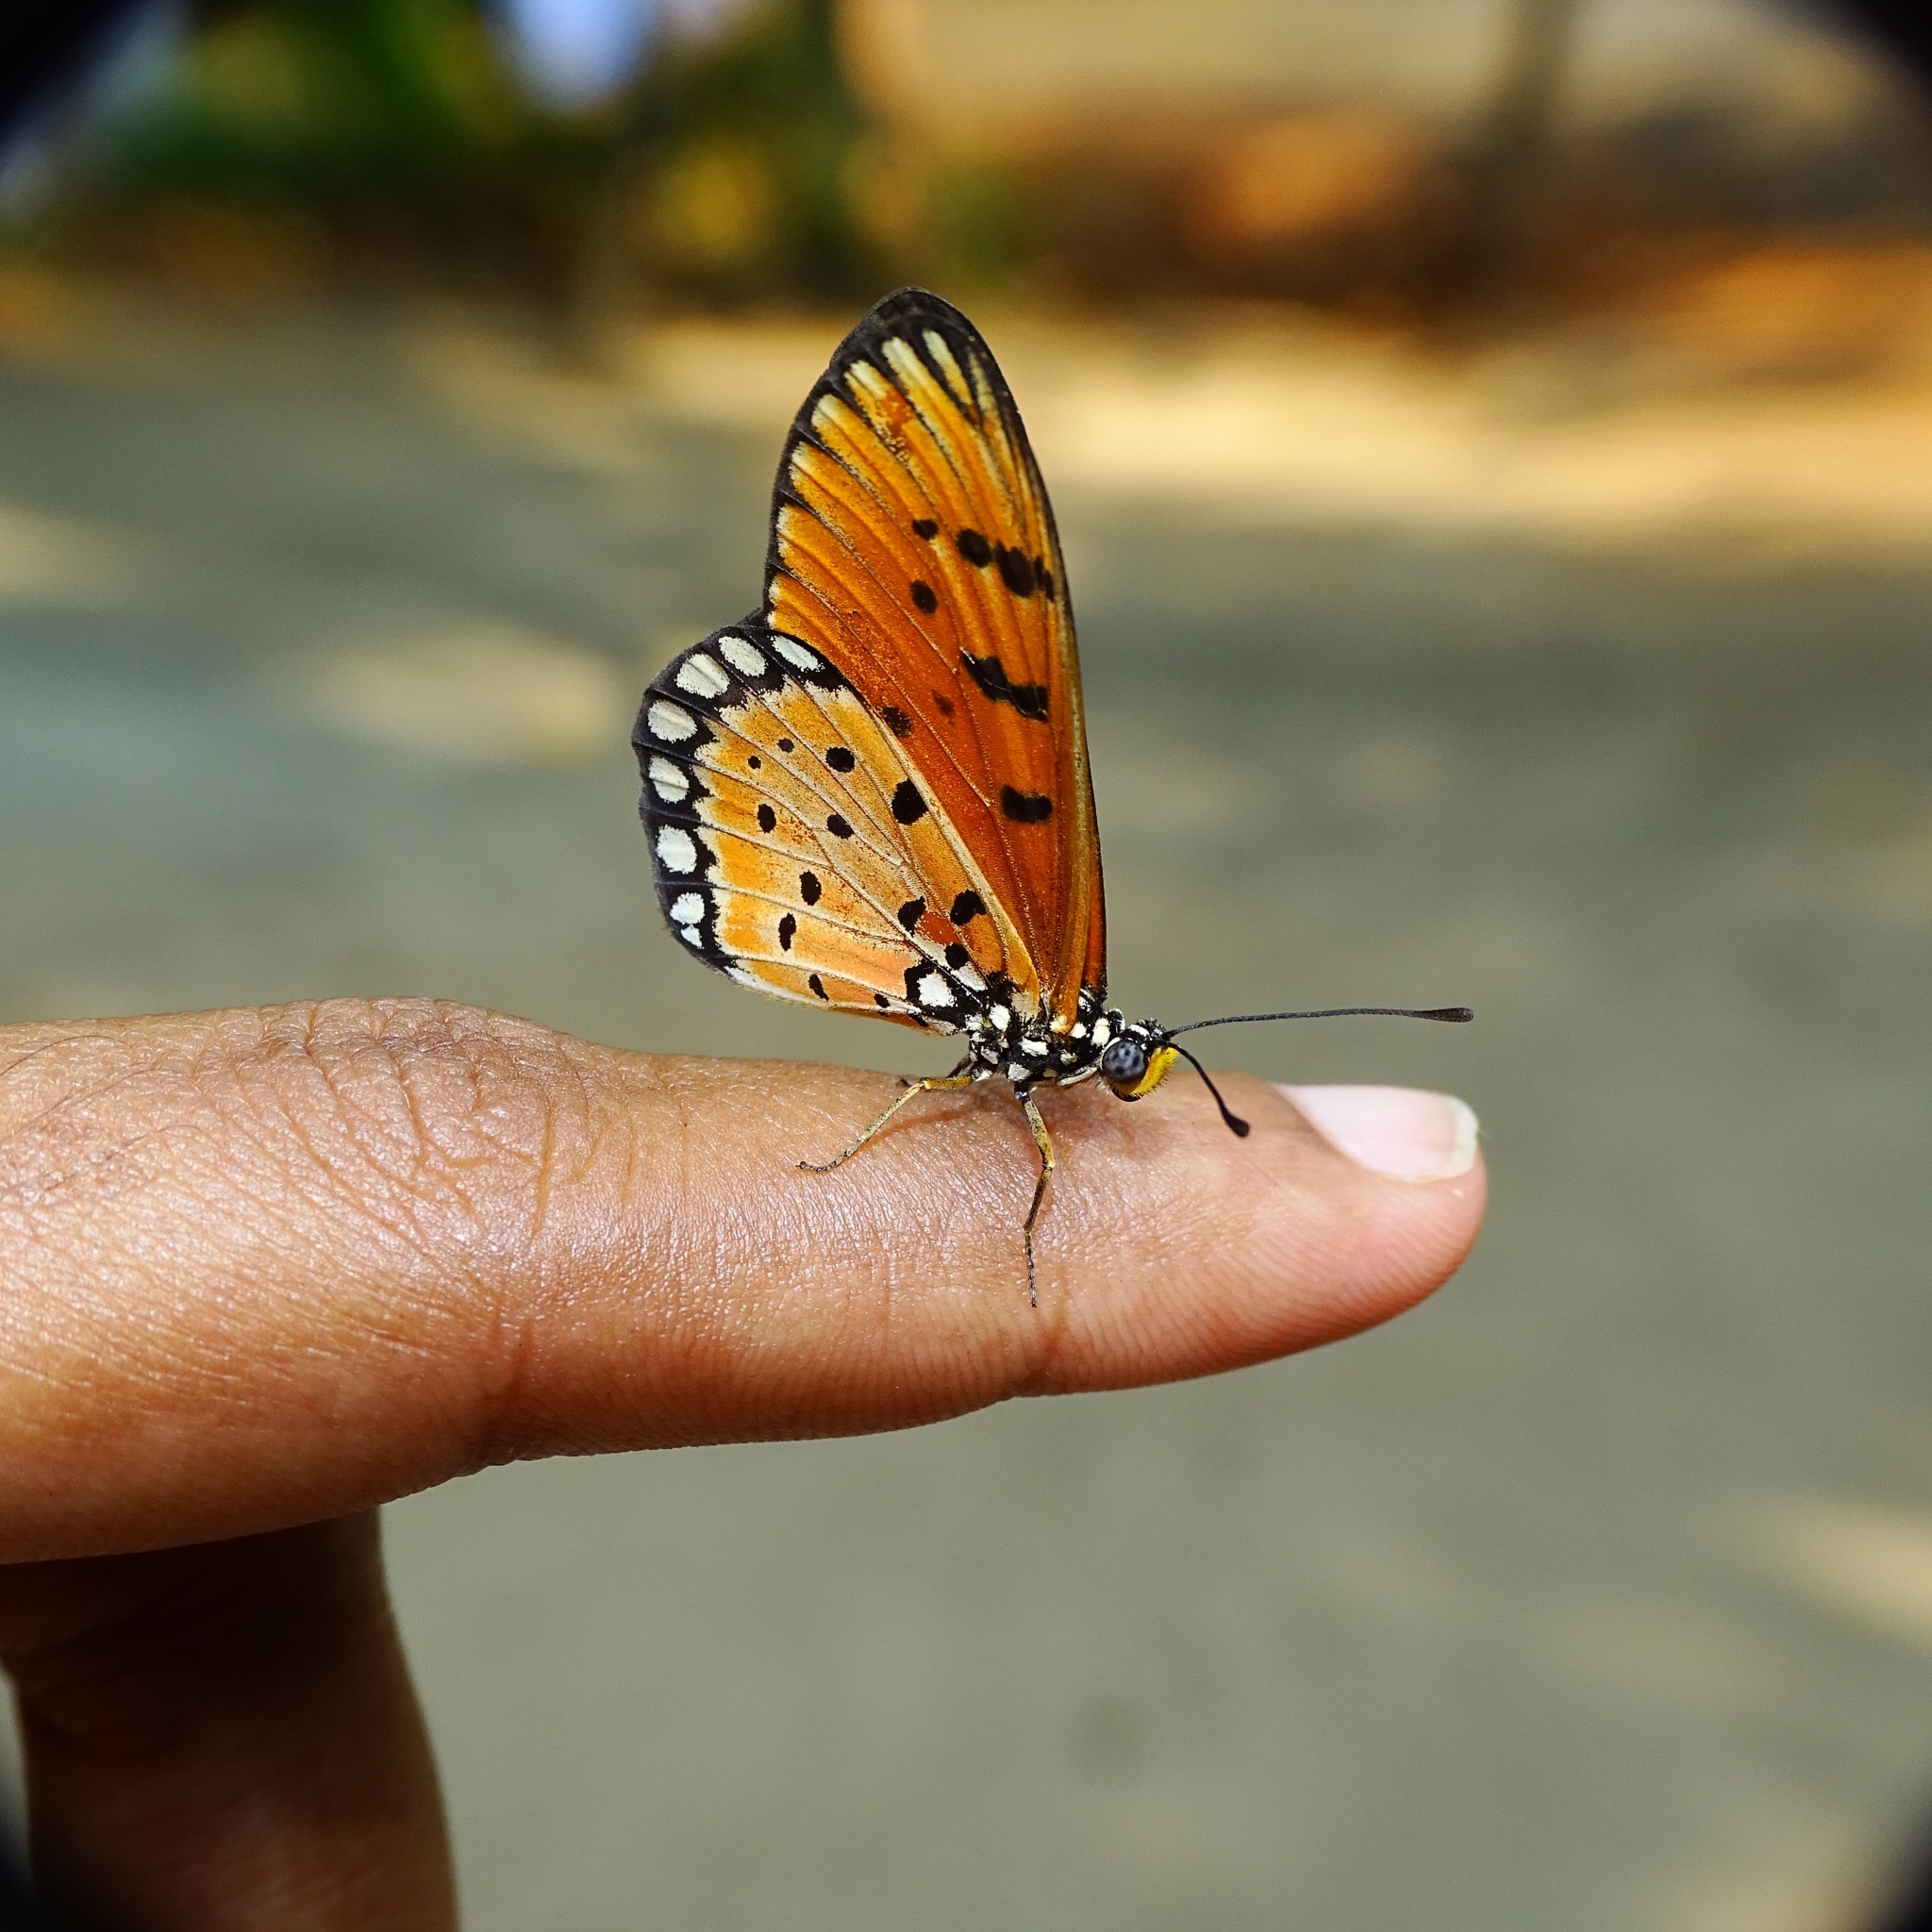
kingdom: Animalia
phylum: Arthropoda
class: Insecta
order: Lepidoptera
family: Nymphalidae
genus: Acraea
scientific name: Acraea terpsicore
